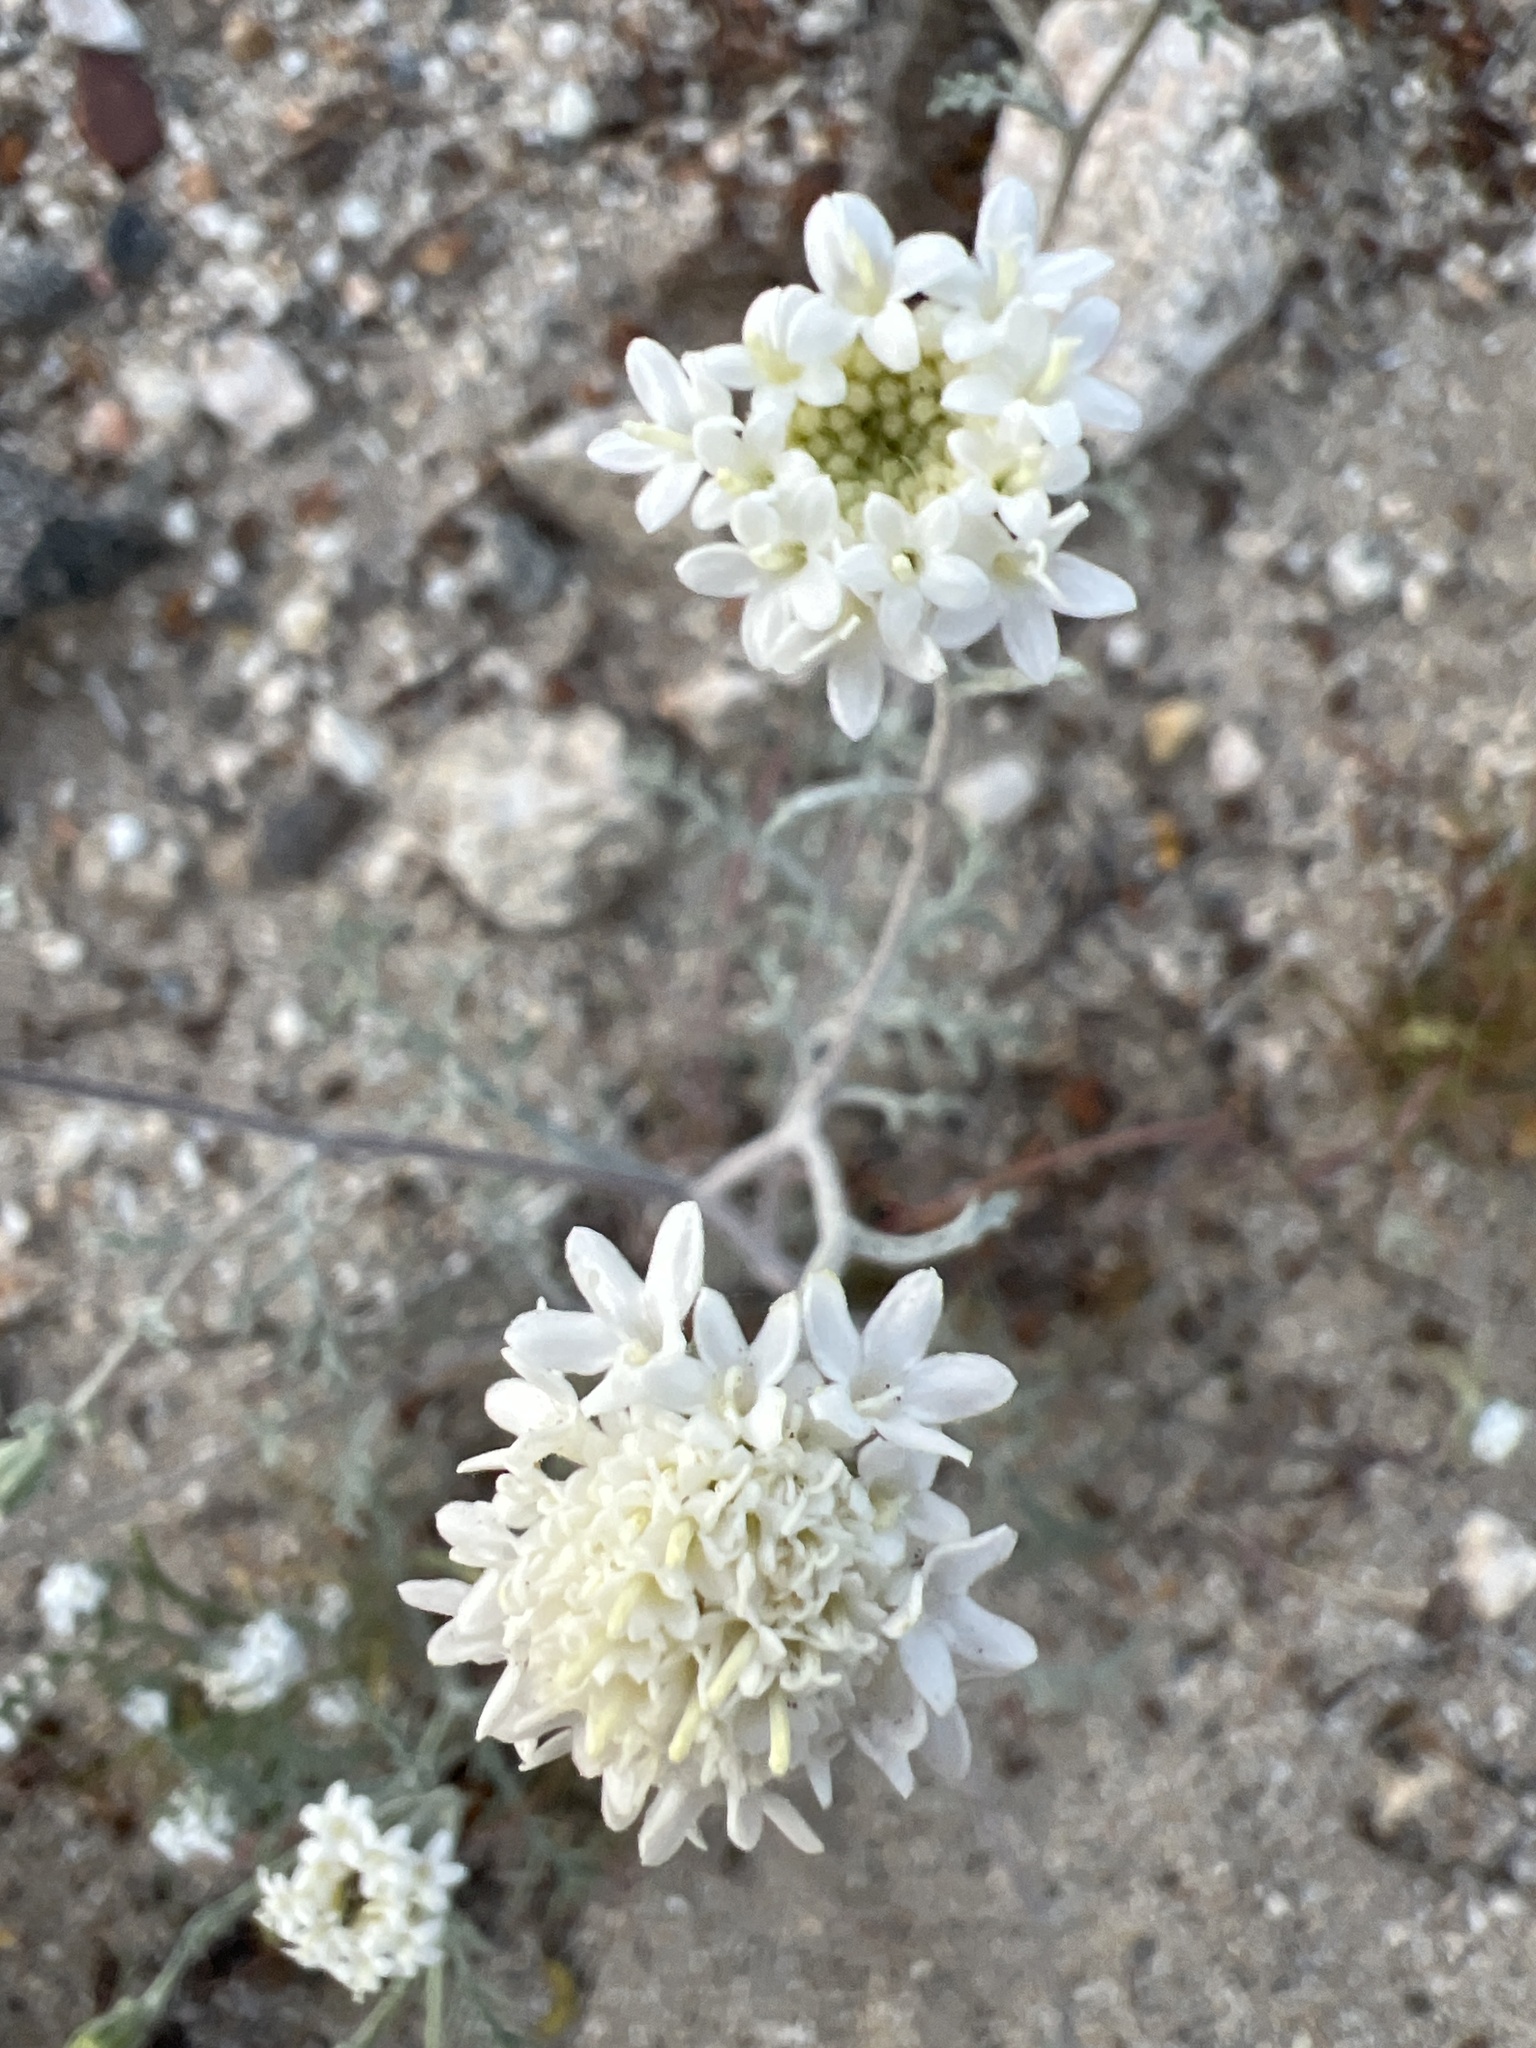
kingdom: Plantae
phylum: Tracheophyta
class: Magnoliopsida
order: Asterales
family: Asteraceae
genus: Chaenactis
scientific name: Chaenactis stevioides
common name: Desert pincushion
